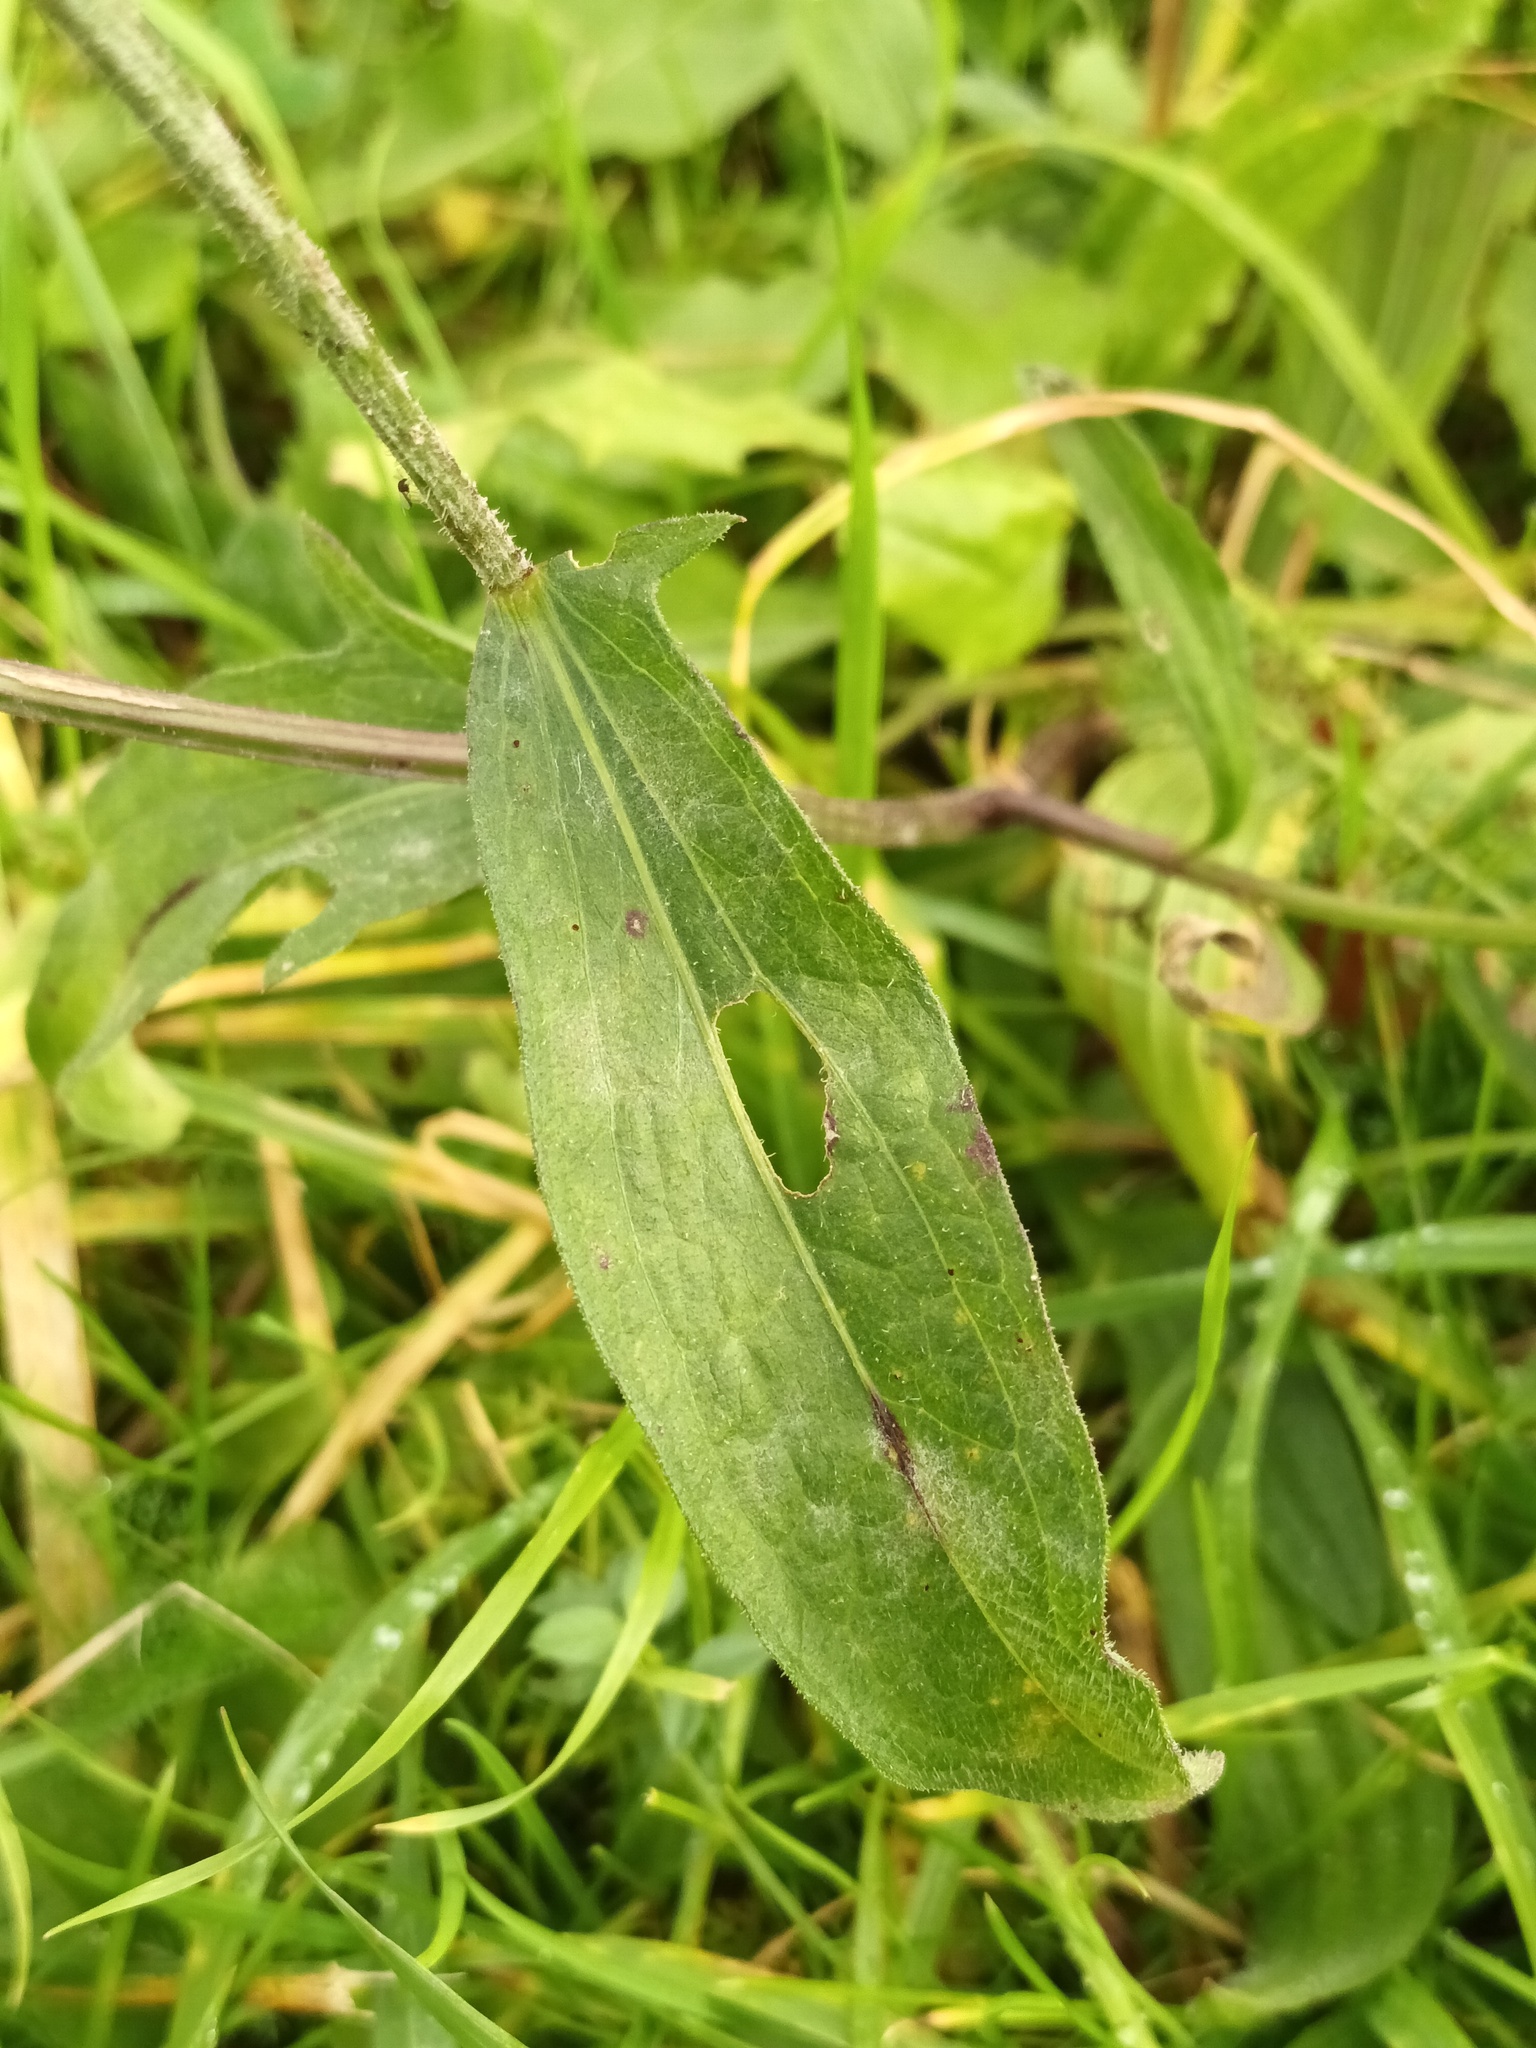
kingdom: Plantae
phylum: Tracheophyta
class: Magnoliopsida
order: Asterales
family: Asteraceae
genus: Centaurea
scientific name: Centaurea jacea
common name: Brown knapweed
